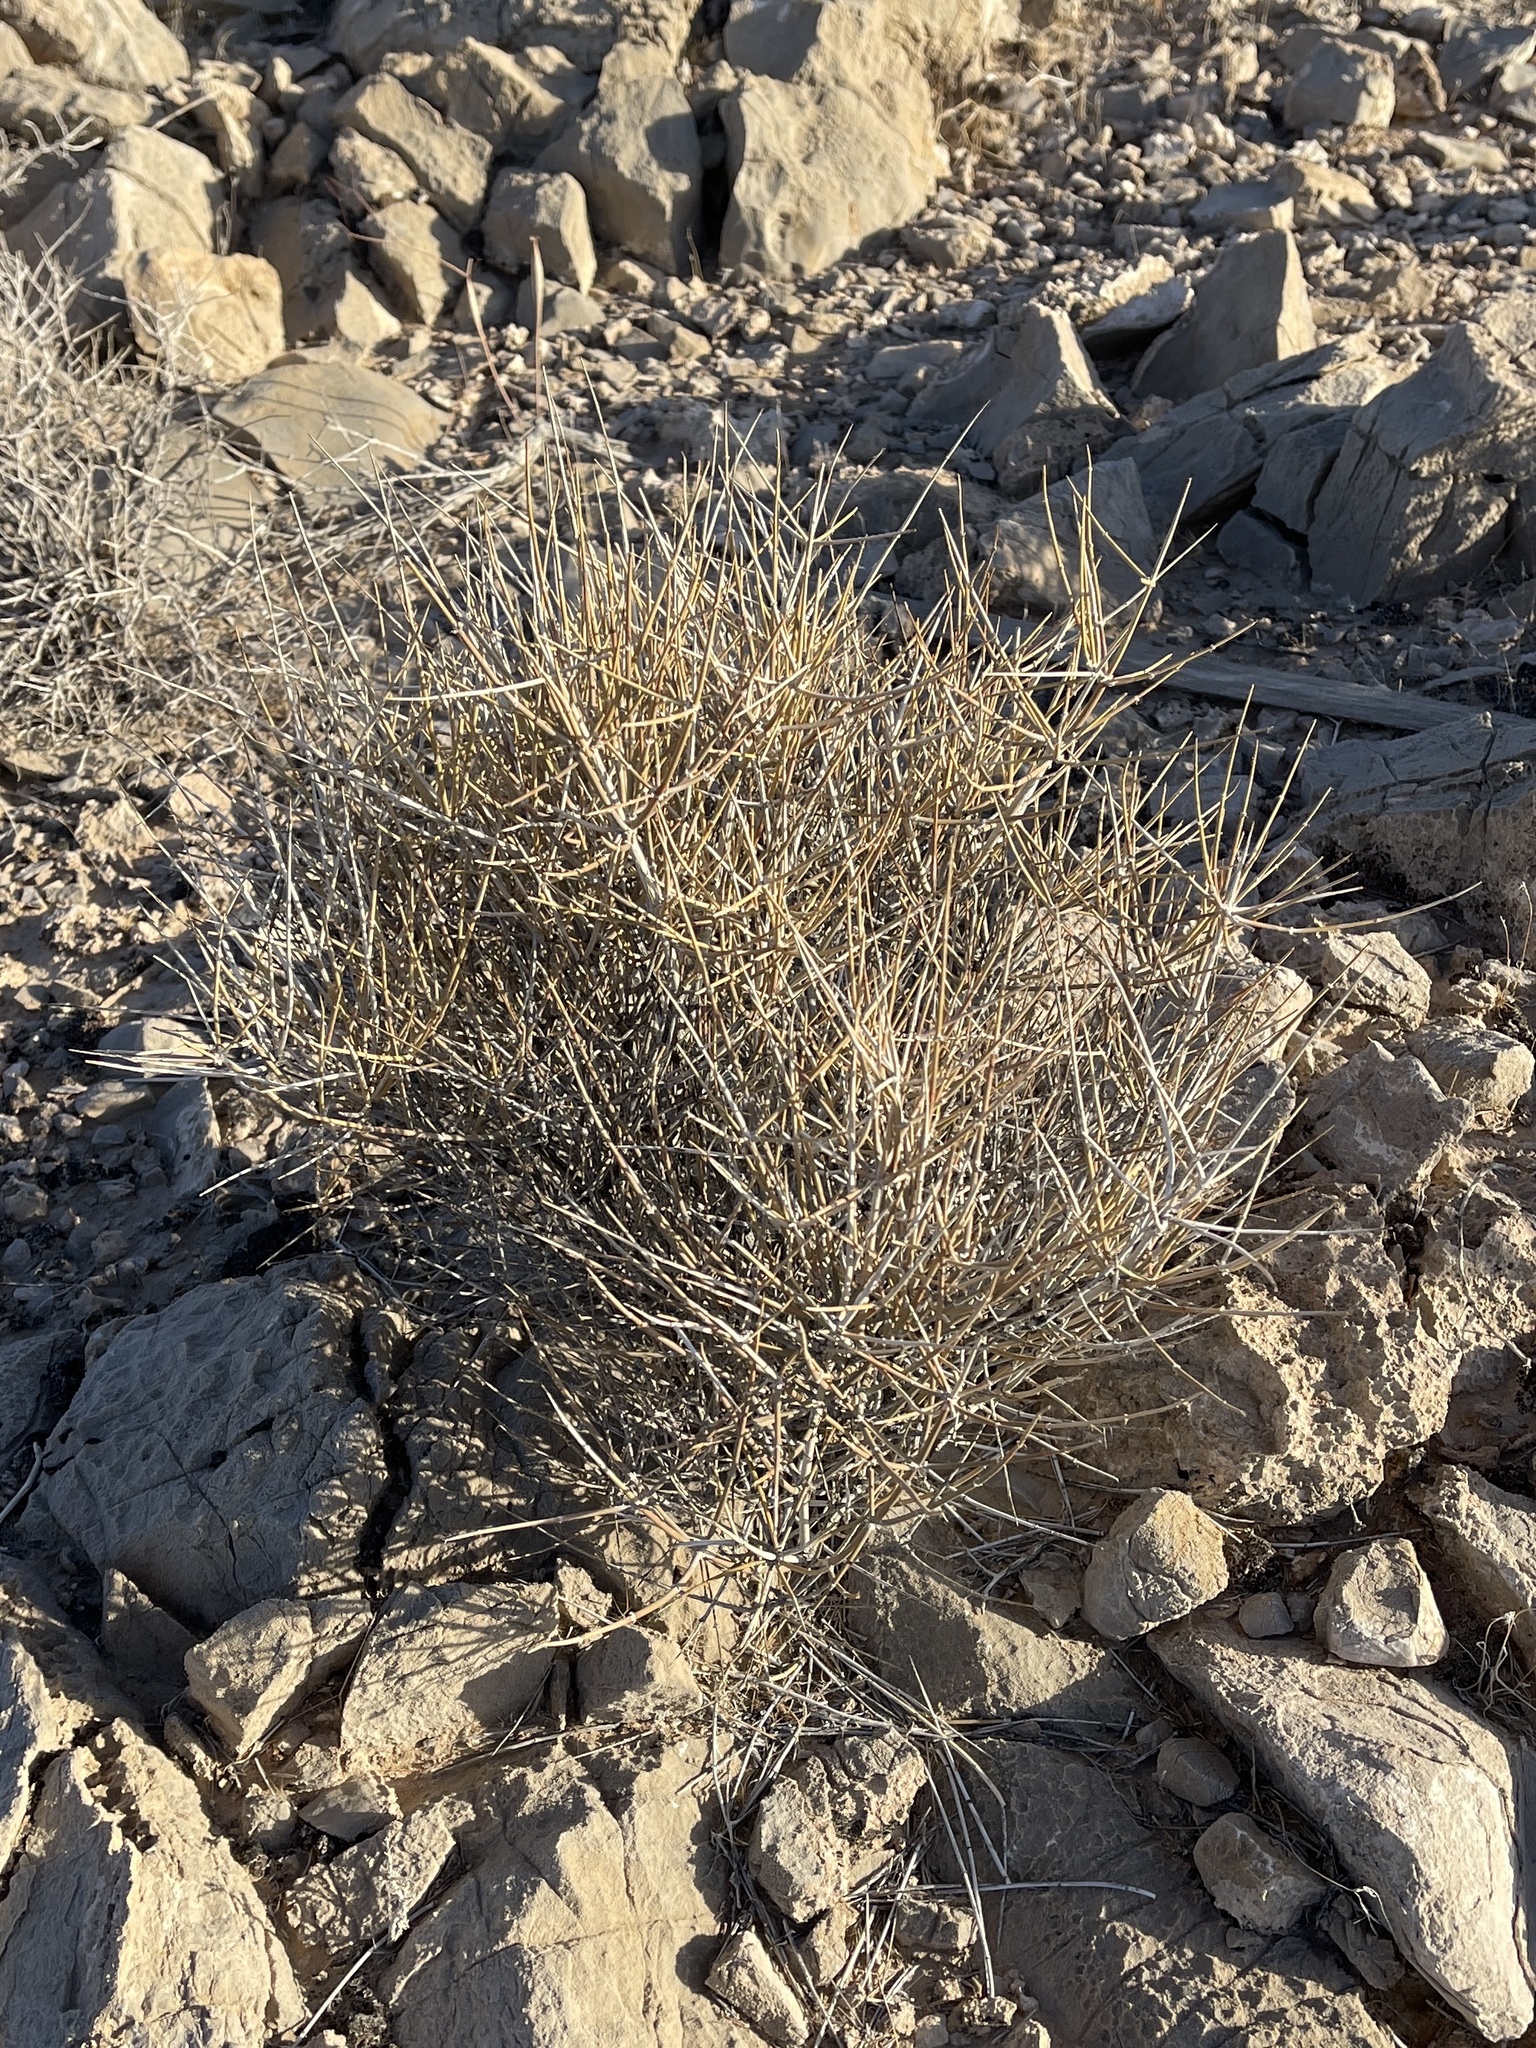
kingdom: Plantae
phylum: Tracheophyta
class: Gnetopsida
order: Ephedrales
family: Ephedraceae
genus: Ephedra
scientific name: Ephedra nevadensis
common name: Gray ephedra
